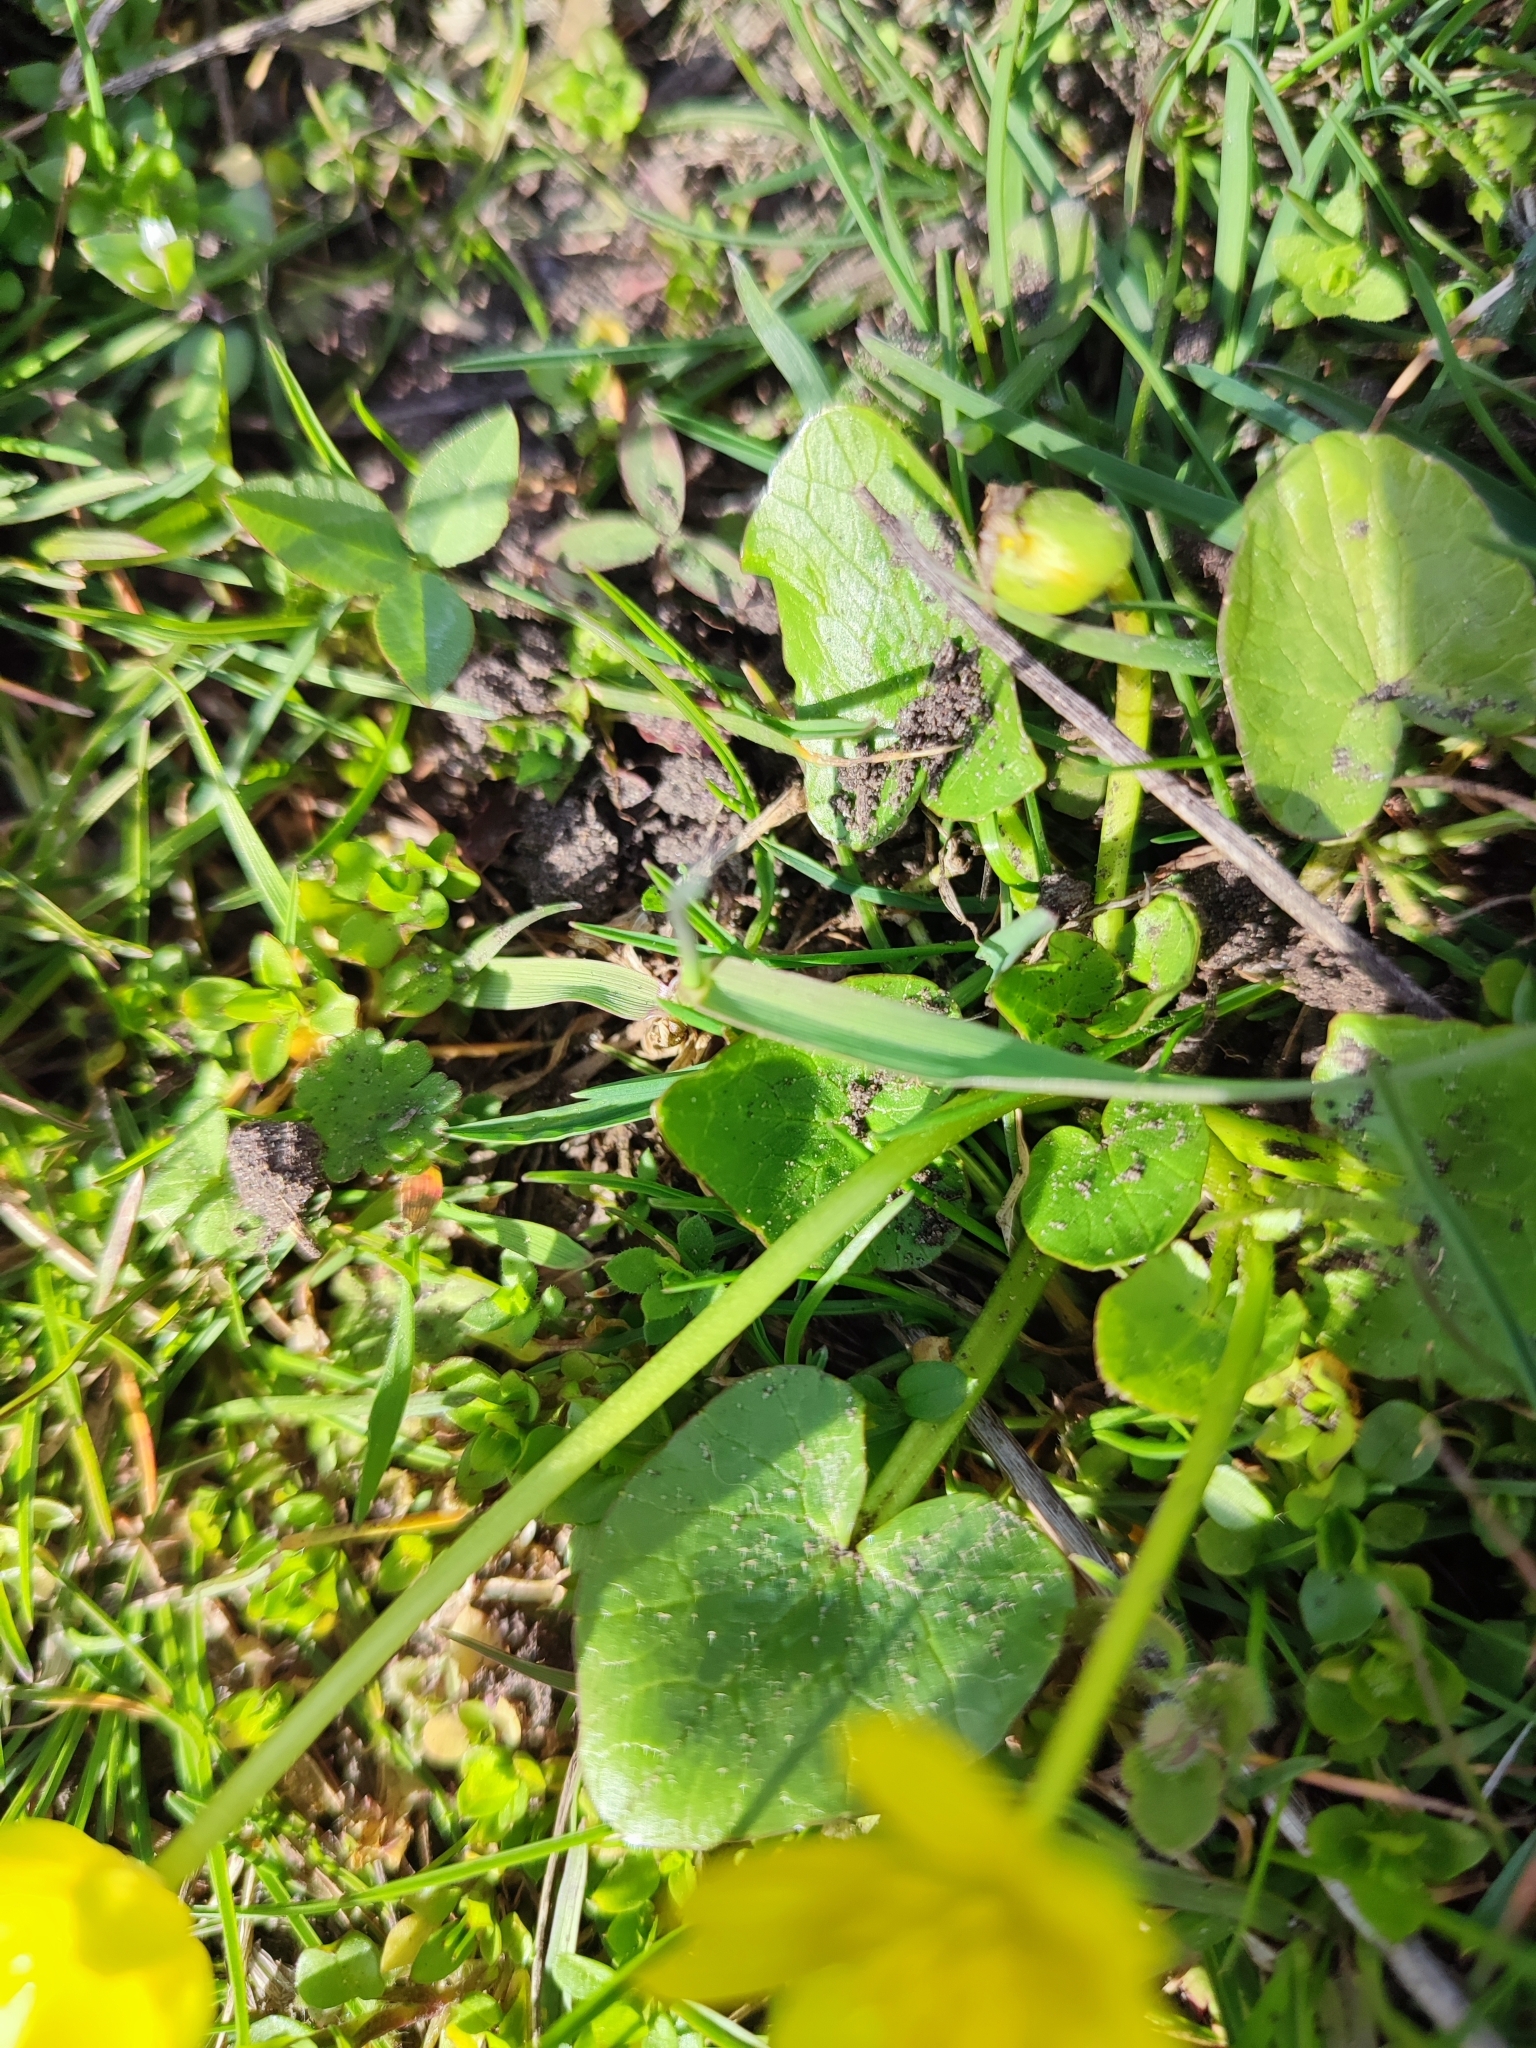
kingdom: Plantae
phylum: Tracheophyta
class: Magnoliopsida
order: Ranunculales
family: Ranunculaceae
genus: Ficaria
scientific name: Ficaria verna
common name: Lesser celandine
